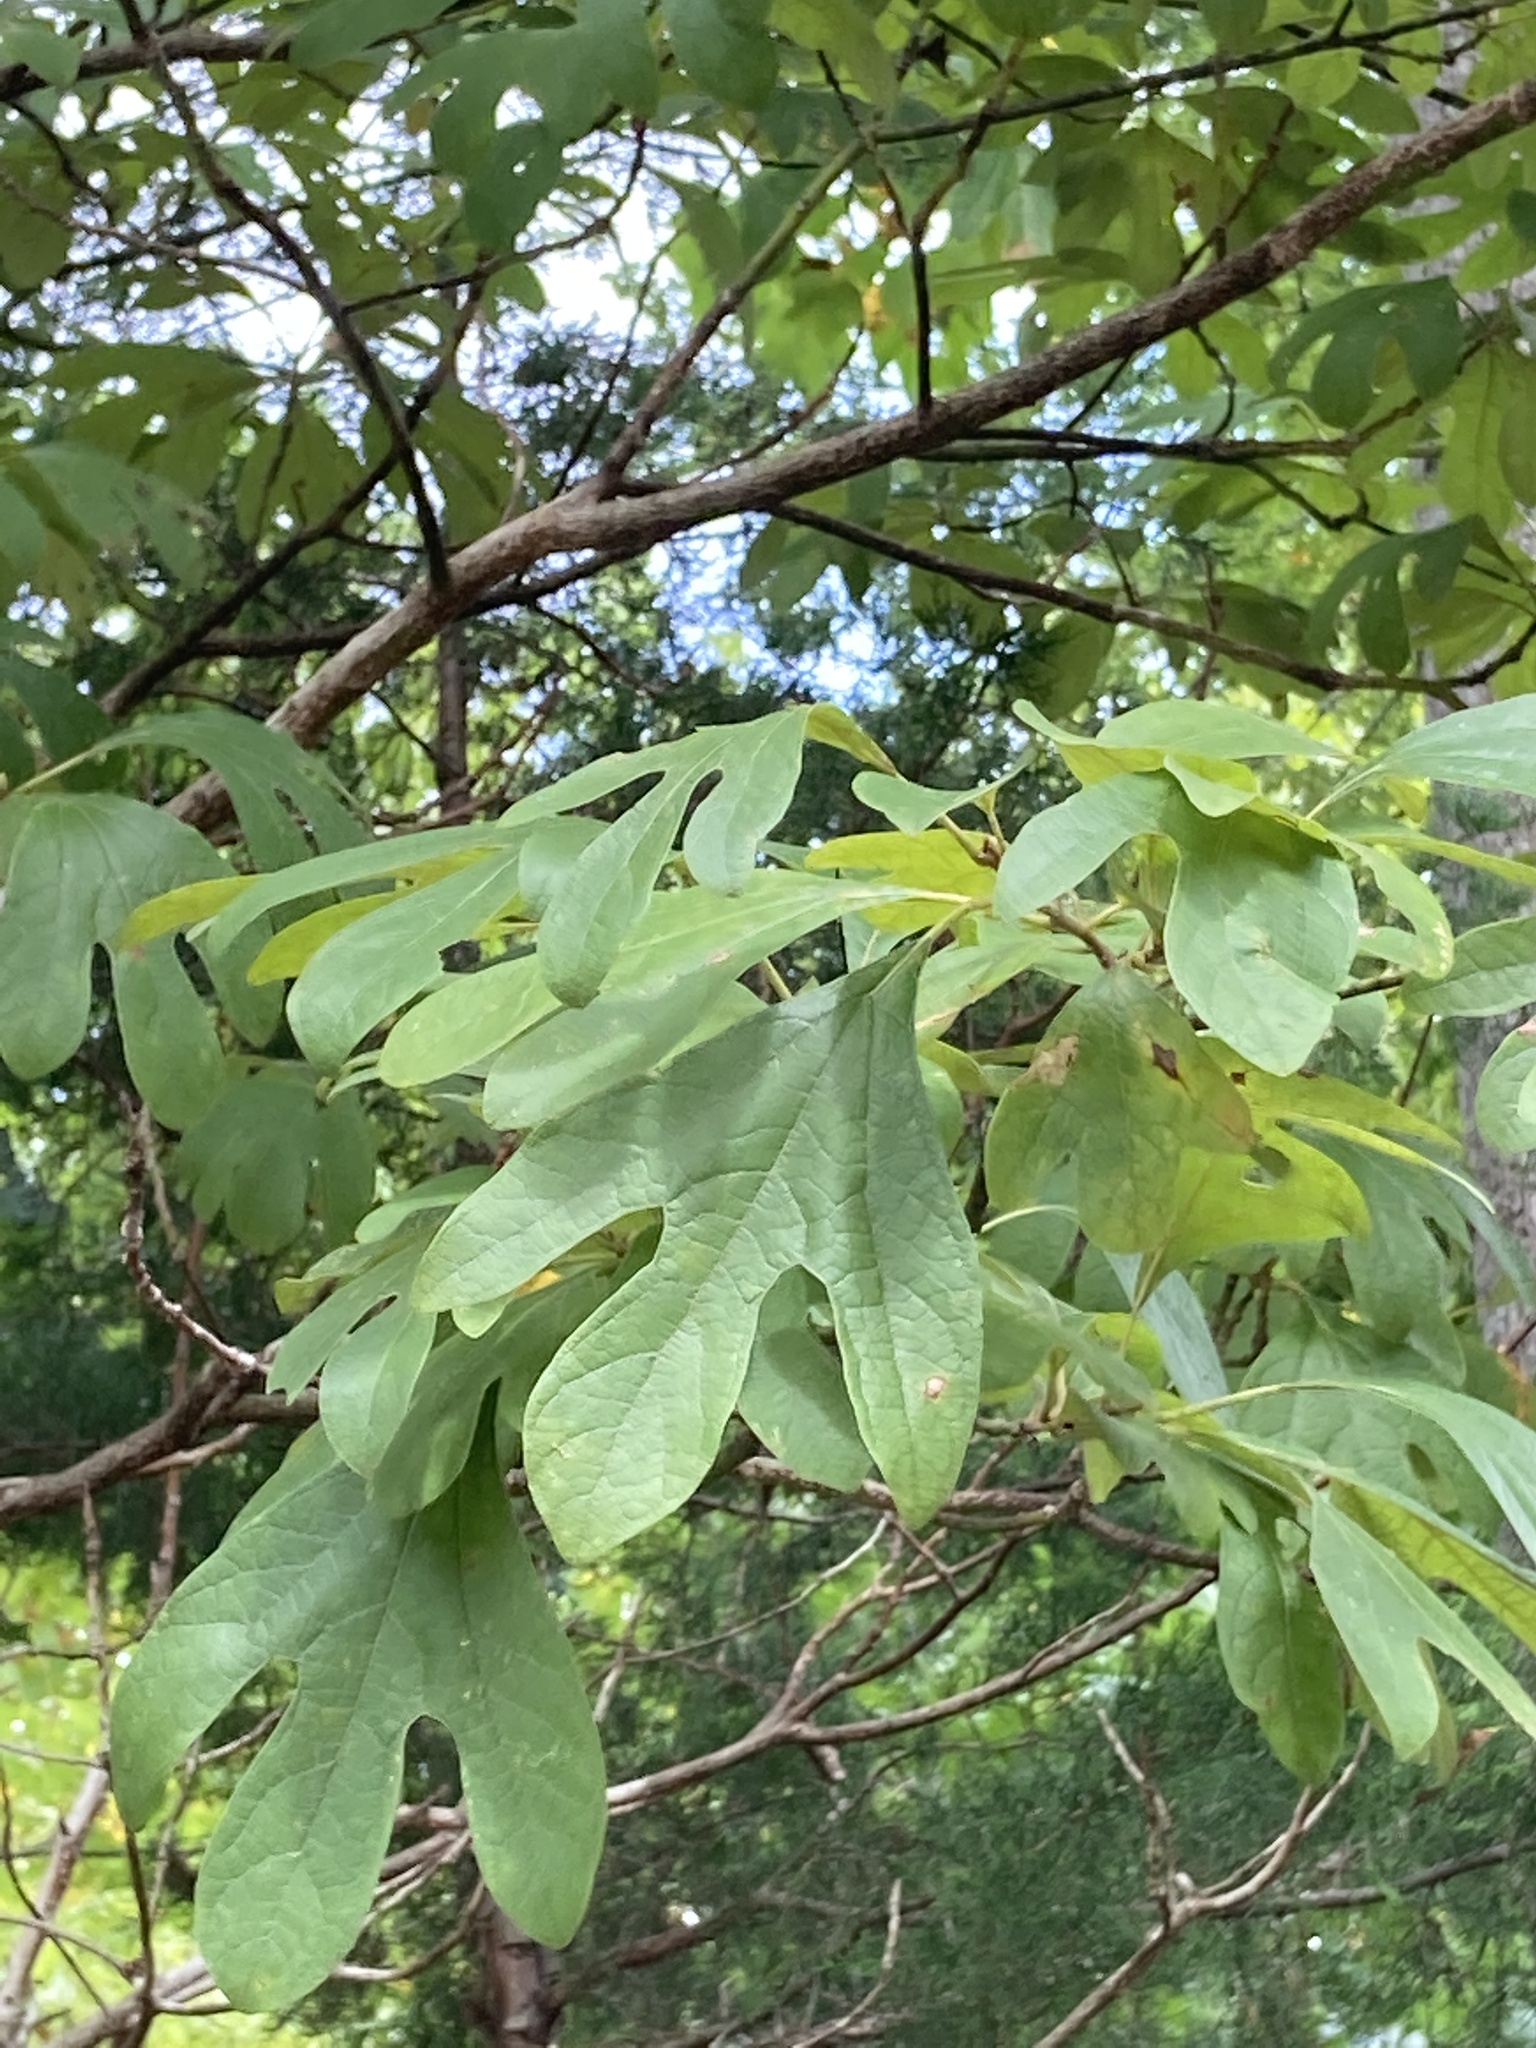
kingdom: Plantae
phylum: Tracheophyta
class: Magnoliopsida
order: Laurales
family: Lauraceae
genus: Sassafras
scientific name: Sassafras albidum
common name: Sassafras
